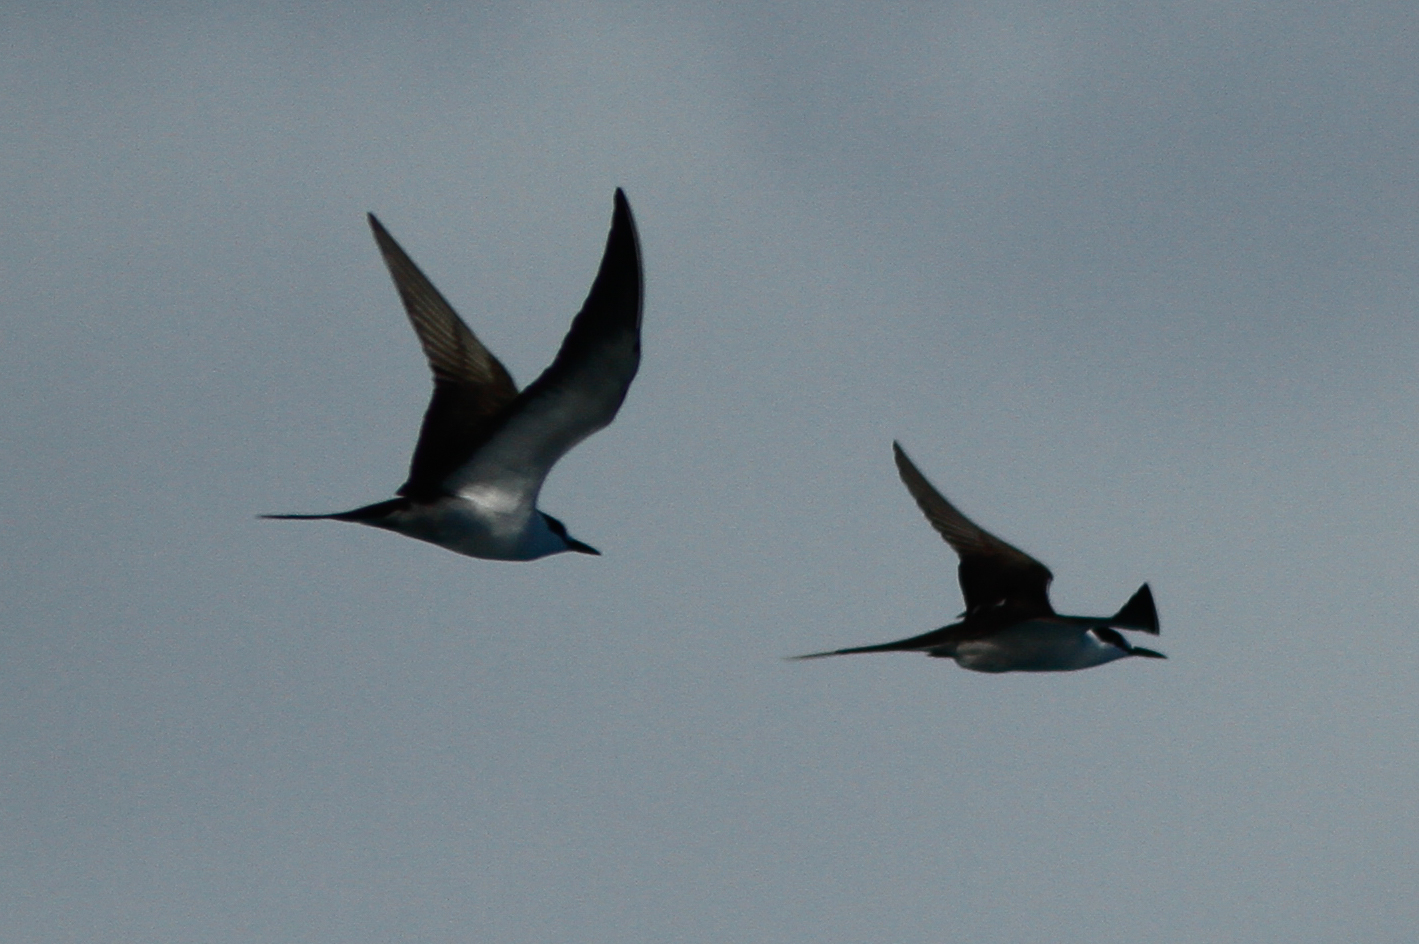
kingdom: Animalia
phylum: Chordata
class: Aves
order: Charadriiformes
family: Laridae
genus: Onychoprion
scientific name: Onychoprion fuscatus
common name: Sooty tern
